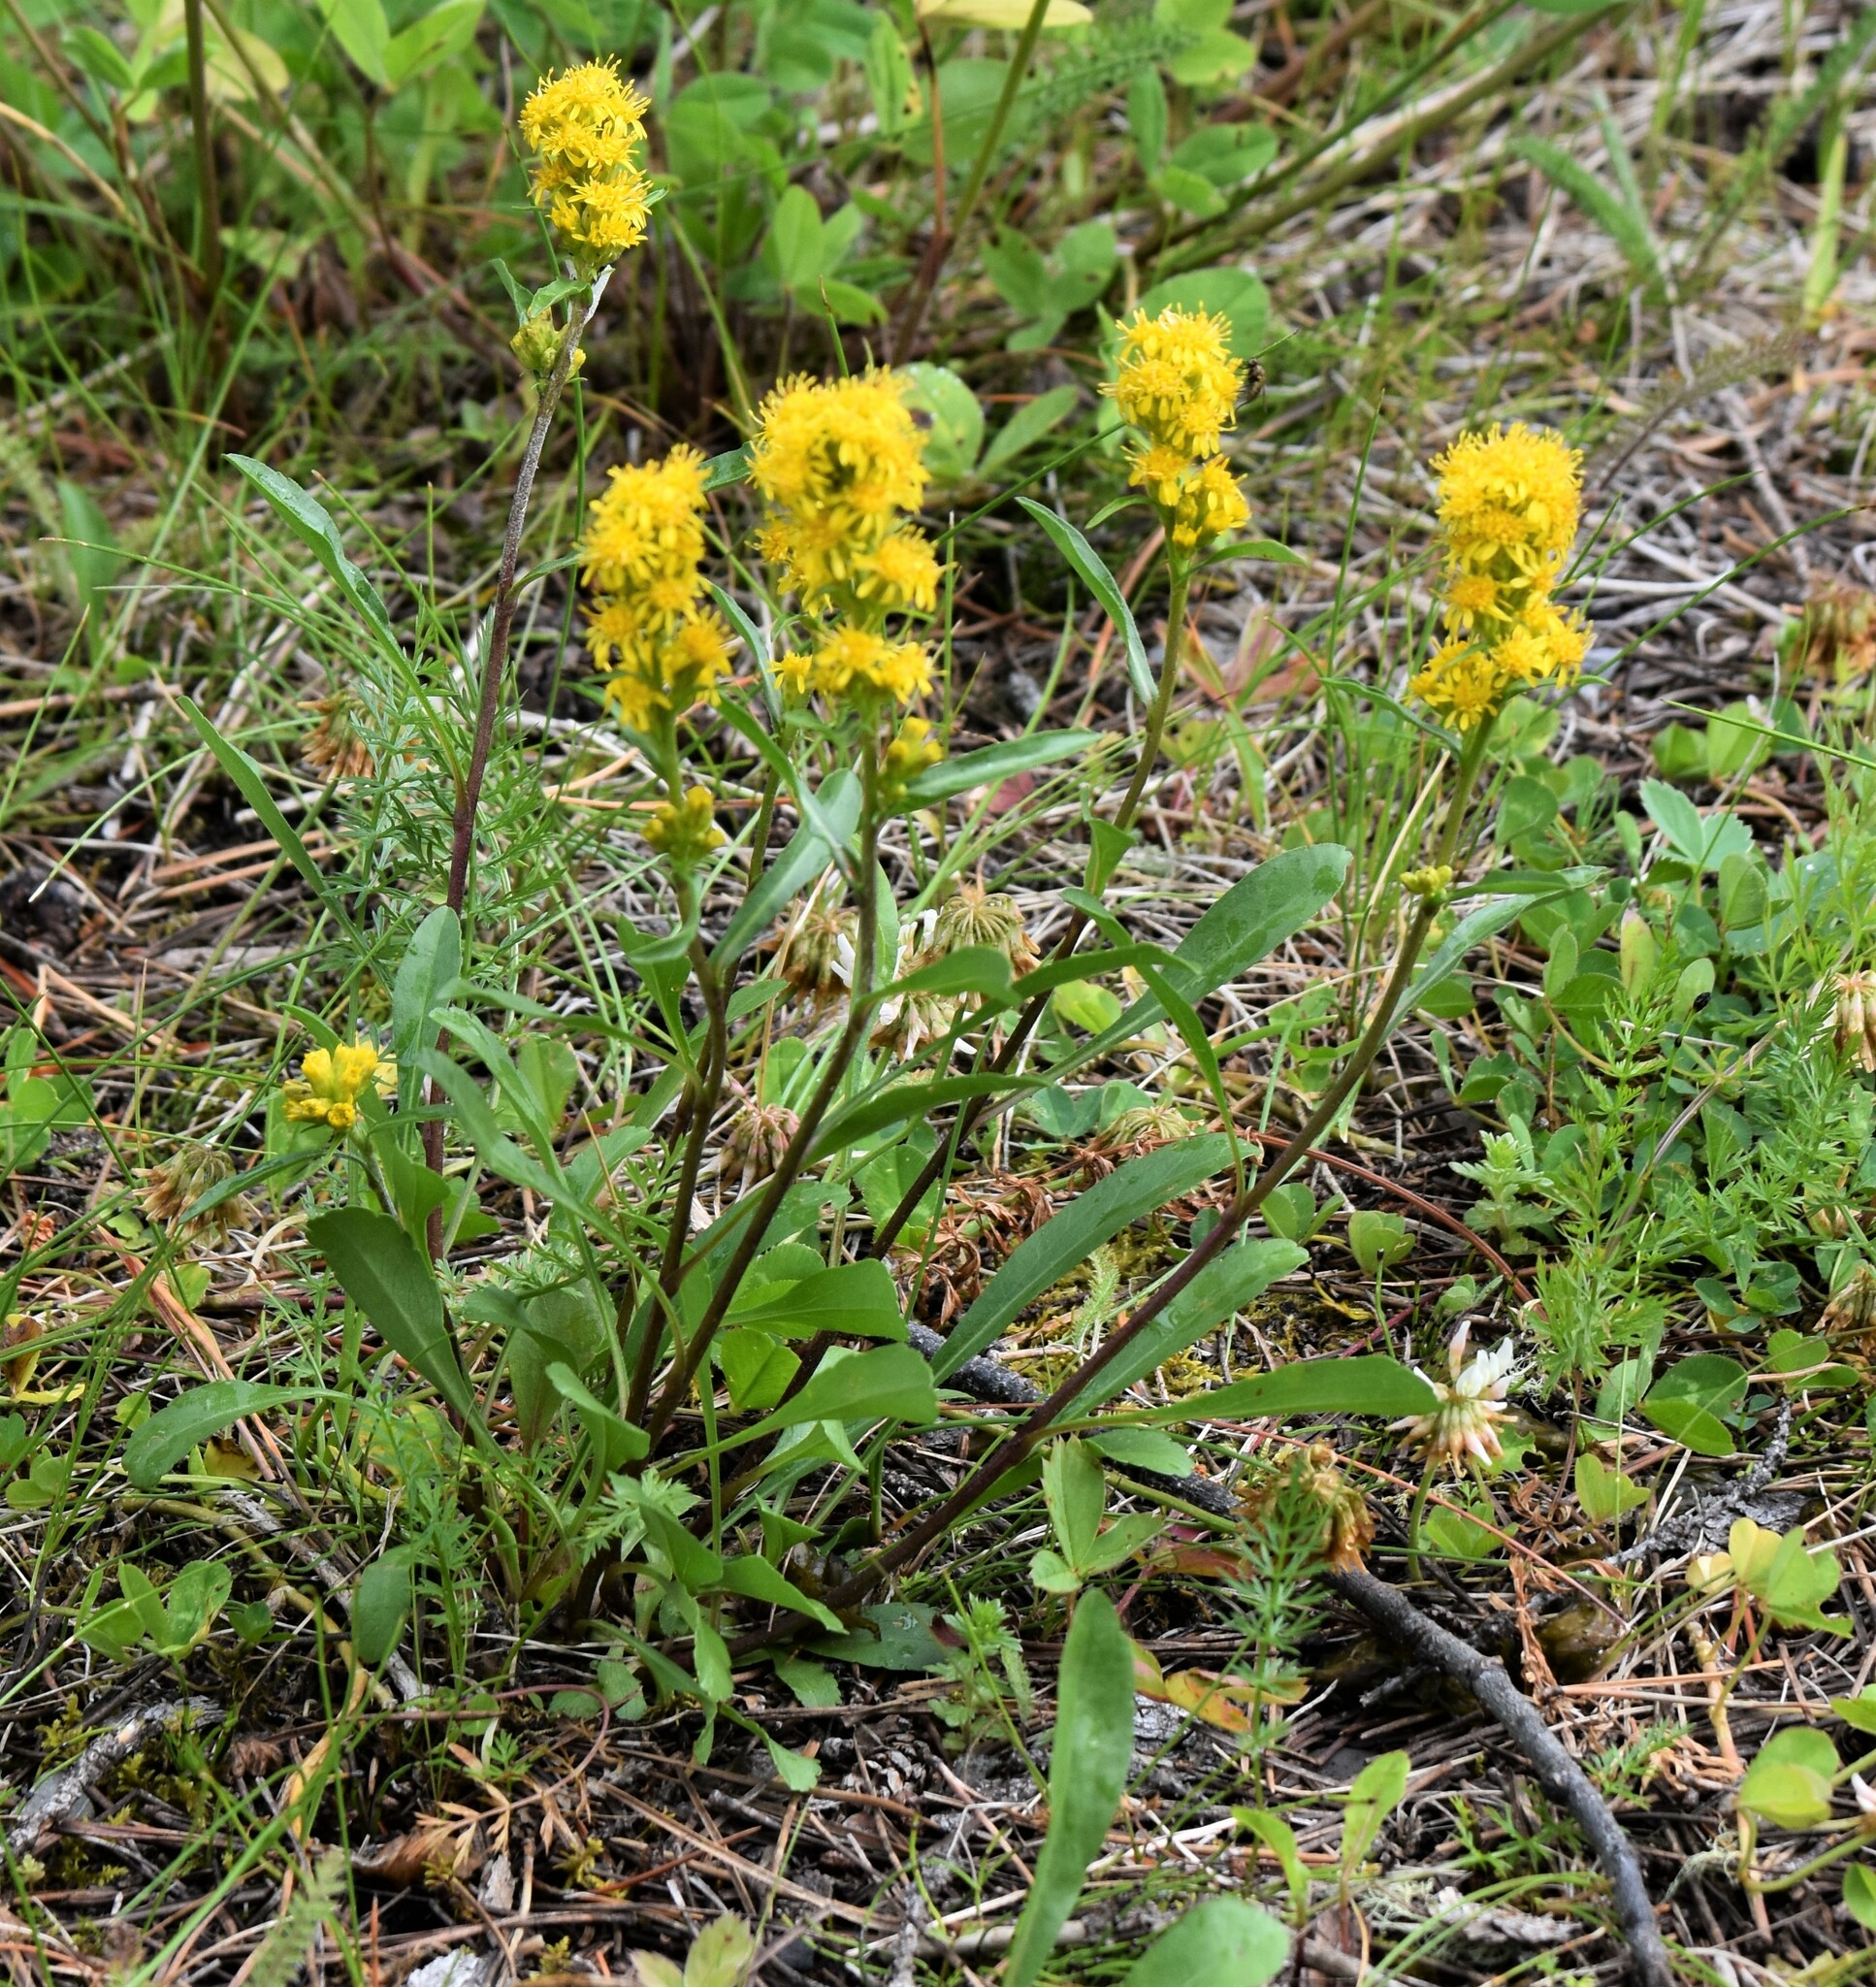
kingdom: Plantae
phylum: Tracheophyta
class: Magnoliopsida
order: Asterales
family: Asteraceae
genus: Solidago
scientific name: Solidago glutinosa
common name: Decumbent goldenrod
